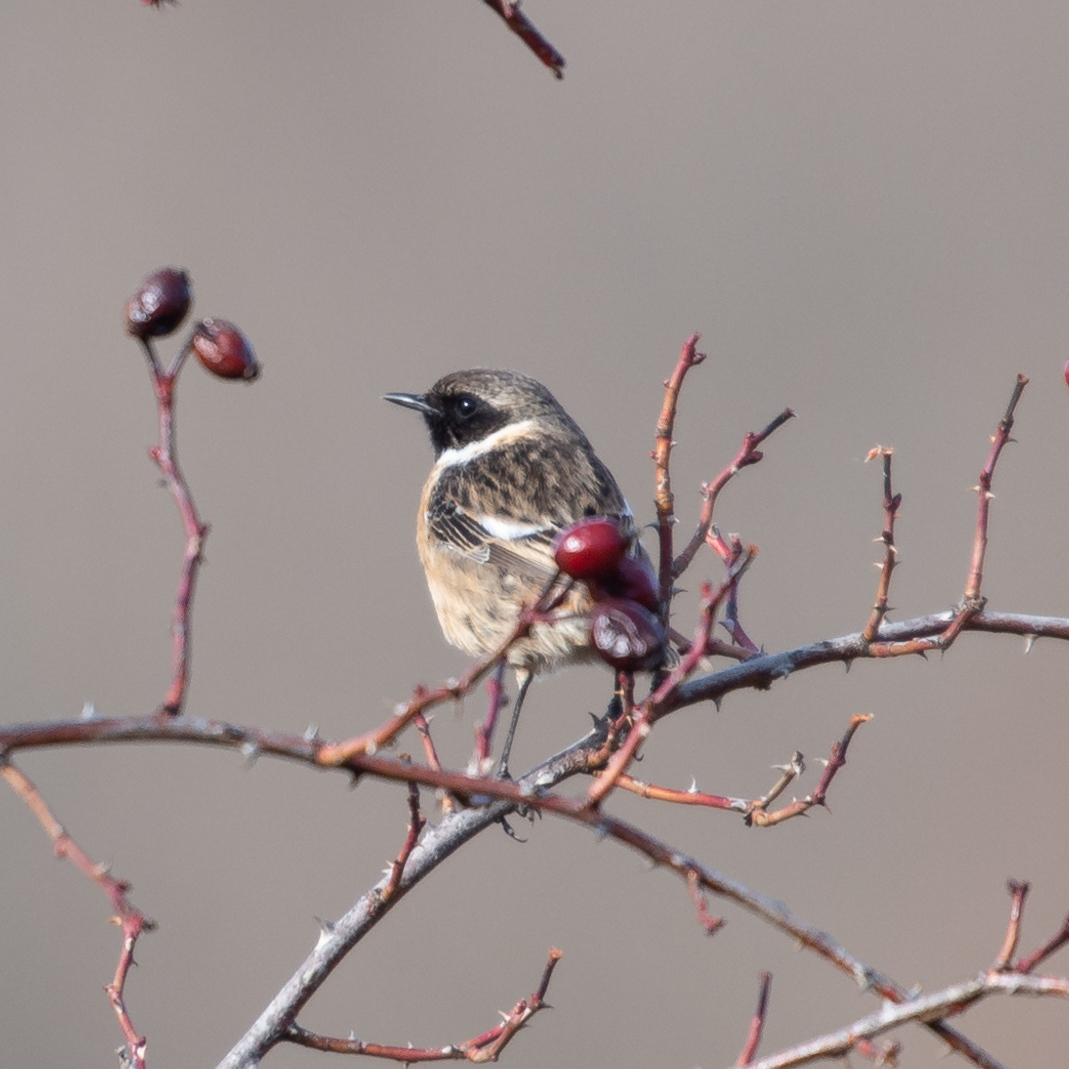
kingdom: Animalia
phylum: Chordata
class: Aves
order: Passeriformes
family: Muscicapidae
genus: Saxicola
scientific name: Saxicola rubicola
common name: European stonechat
